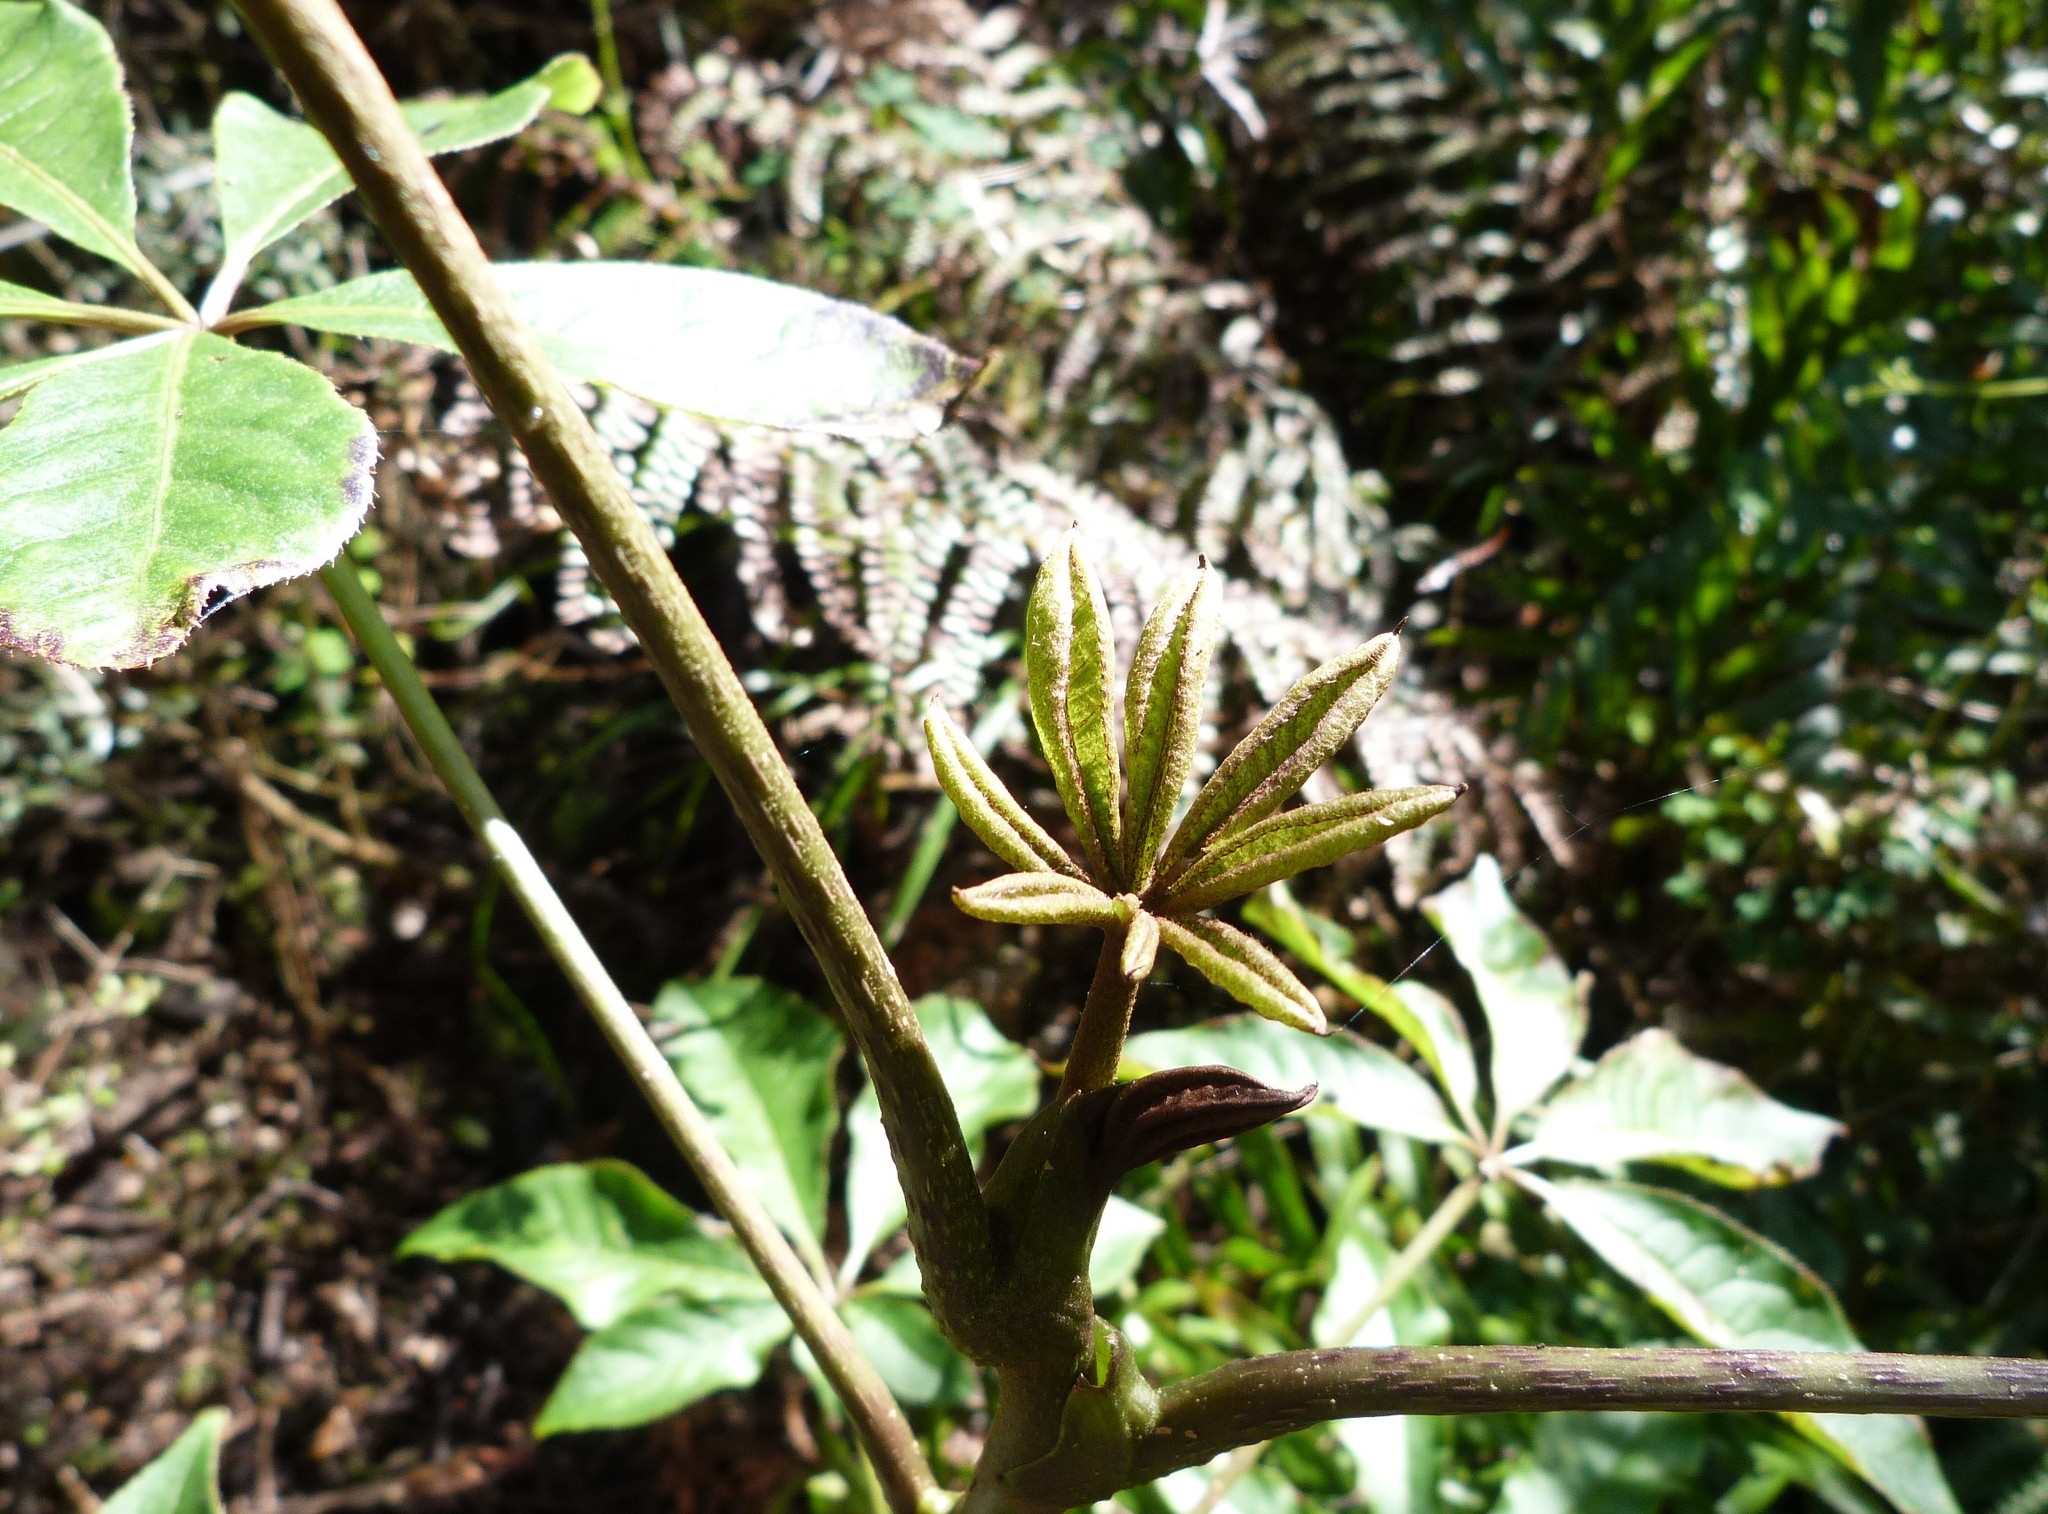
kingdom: Plantae
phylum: Tracheophyta
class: Magnoliopsida
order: Apiales
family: Araliaceae
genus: Schefflera
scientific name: Schefflera digitata
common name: Pate
